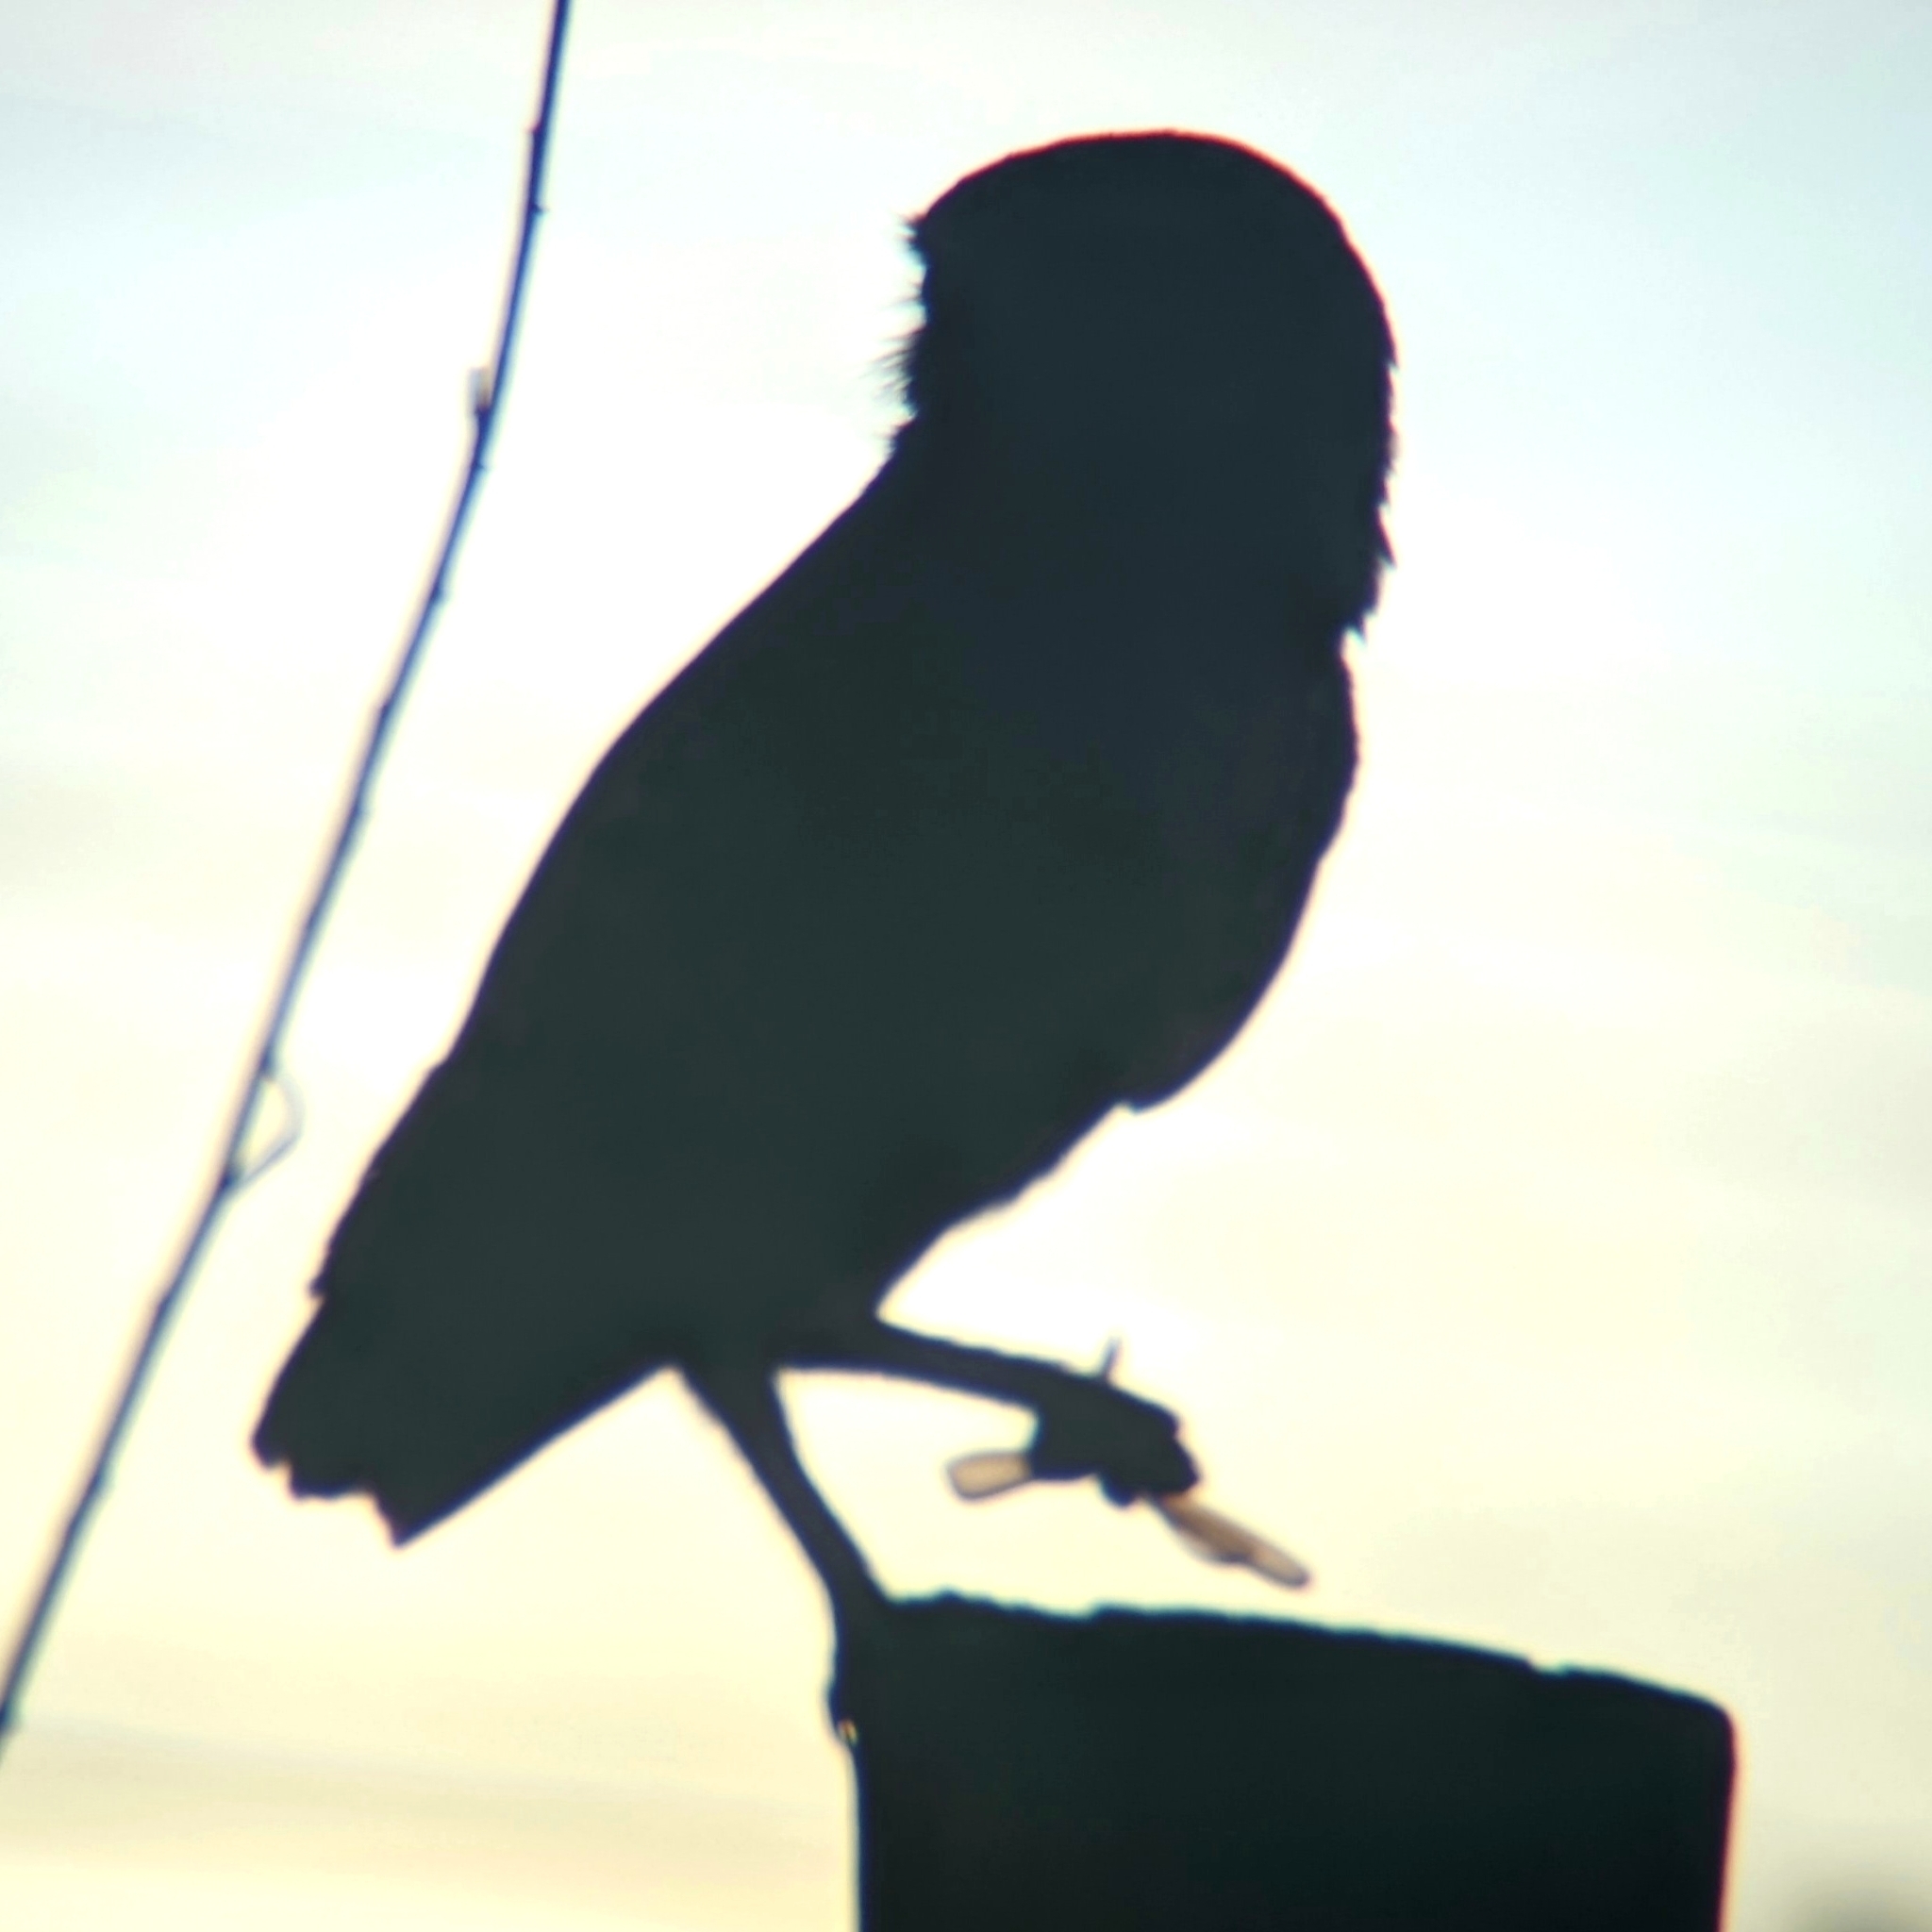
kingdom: Animalia
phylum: Chordata
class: Aves
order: Strigiformes
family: Strigidae
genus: Athene
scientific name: Athene cunicularia
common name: Burrowing owl
